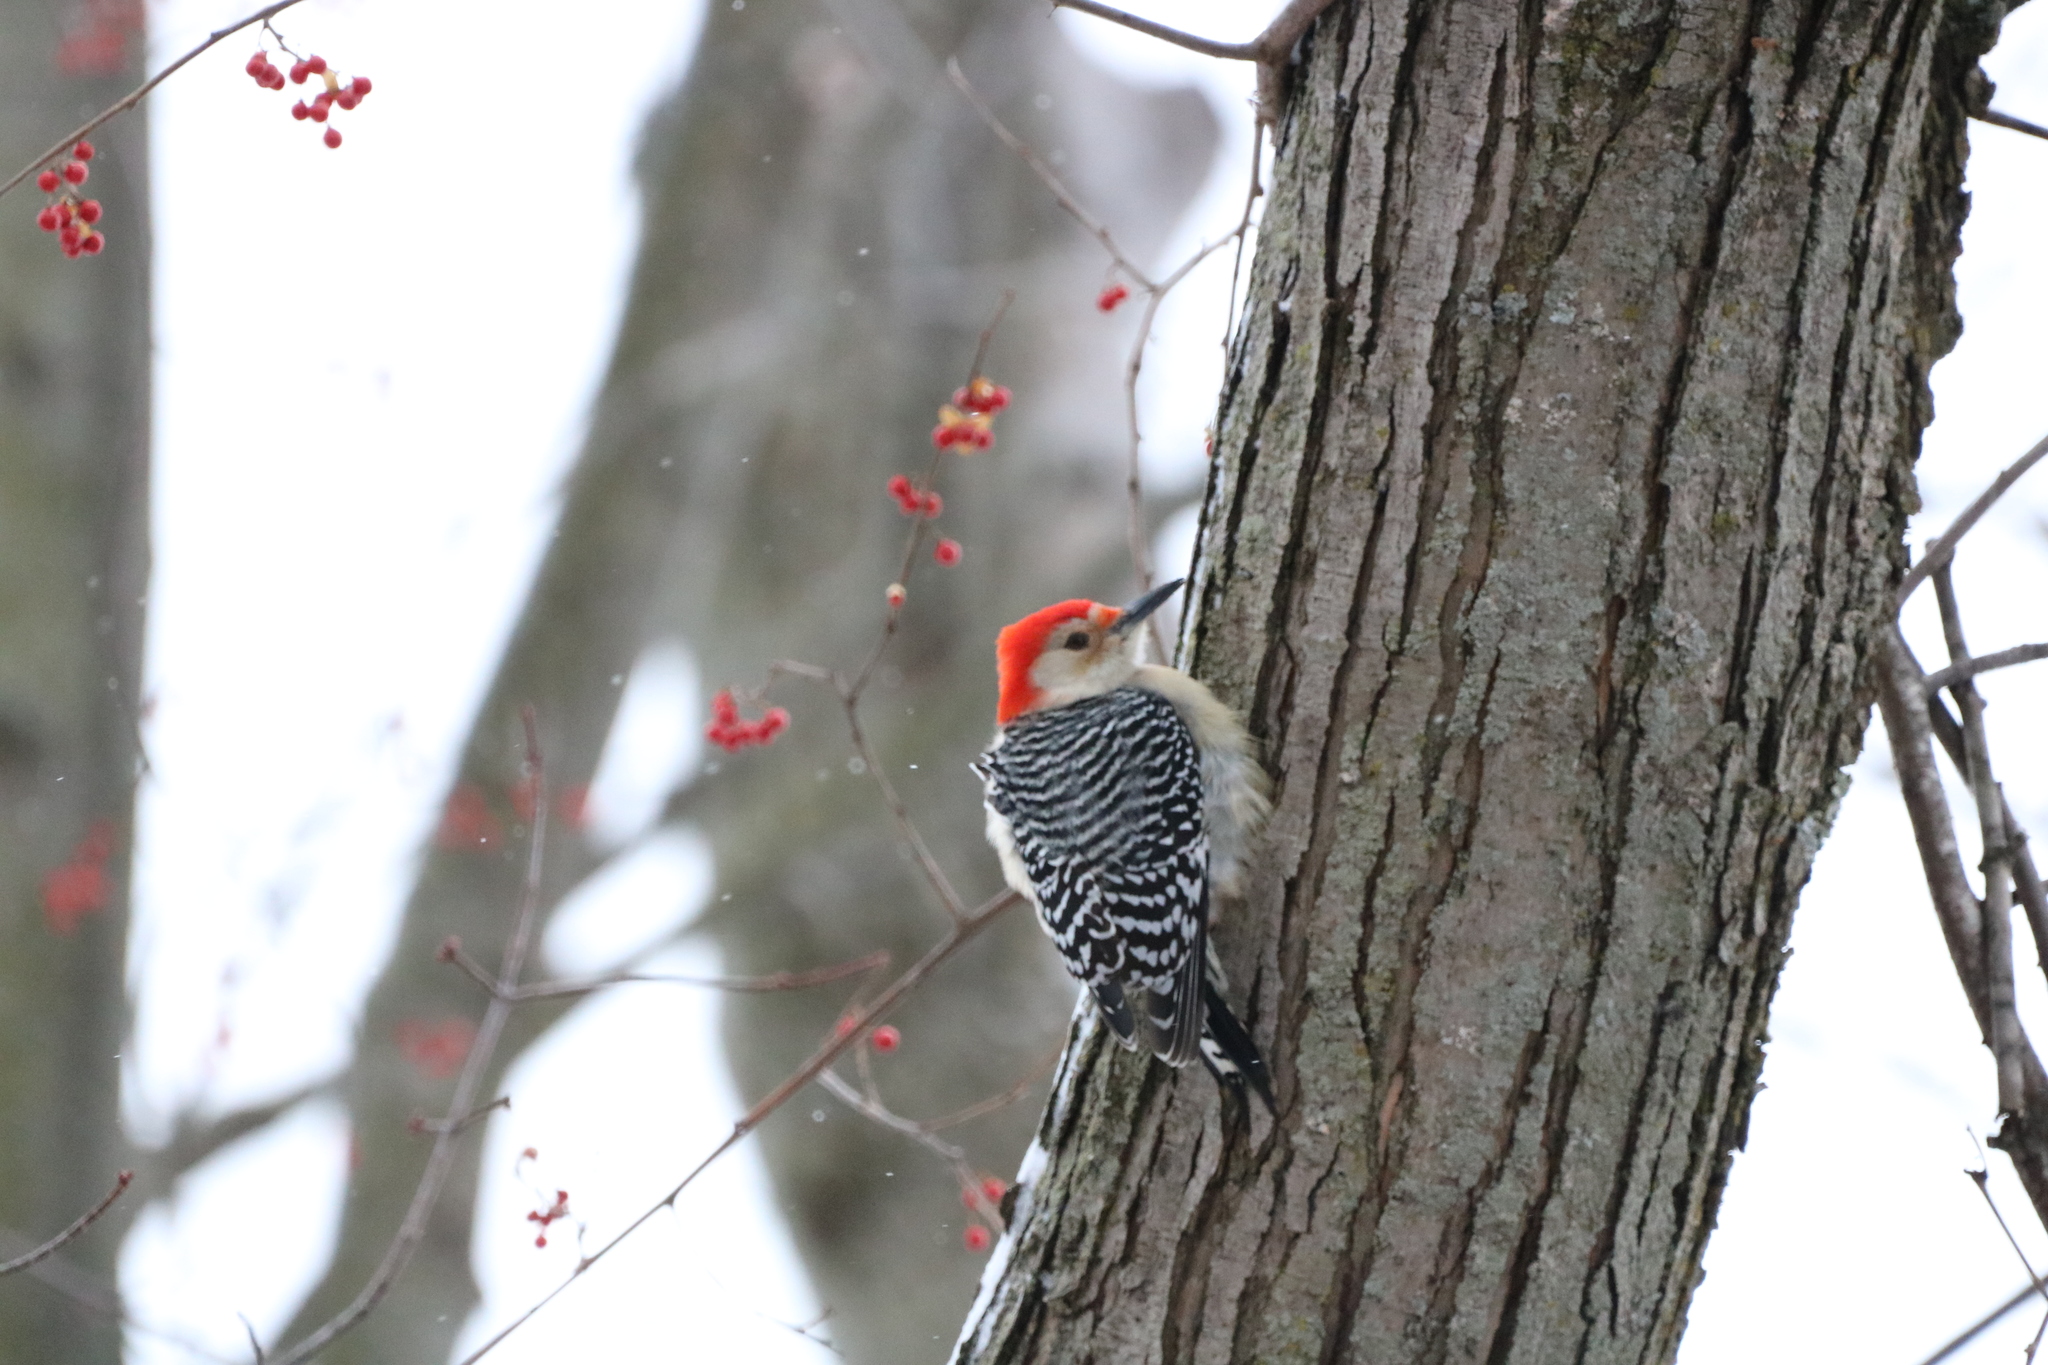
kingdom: Animalia
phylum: Chordata
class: Aves
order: Piciformes
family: Picidae
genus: Melanerpes
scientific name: Melanerpes carolinus
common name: Red-bellied woodpecker
